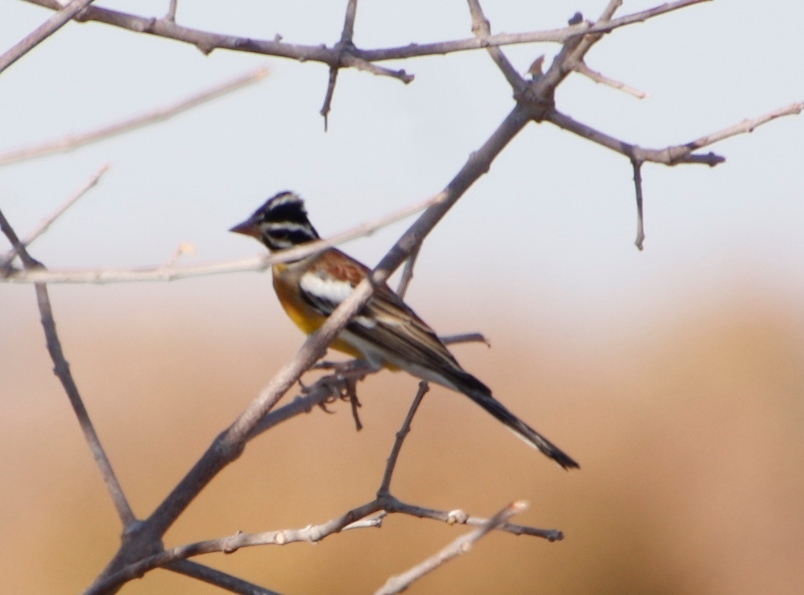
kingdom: Animalia
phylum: Chordata
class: Aves
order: Passeriformes
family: Emberizidae
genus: Emberiza
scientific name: Emberiza flaviventris
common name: Golden-breasted bunting
